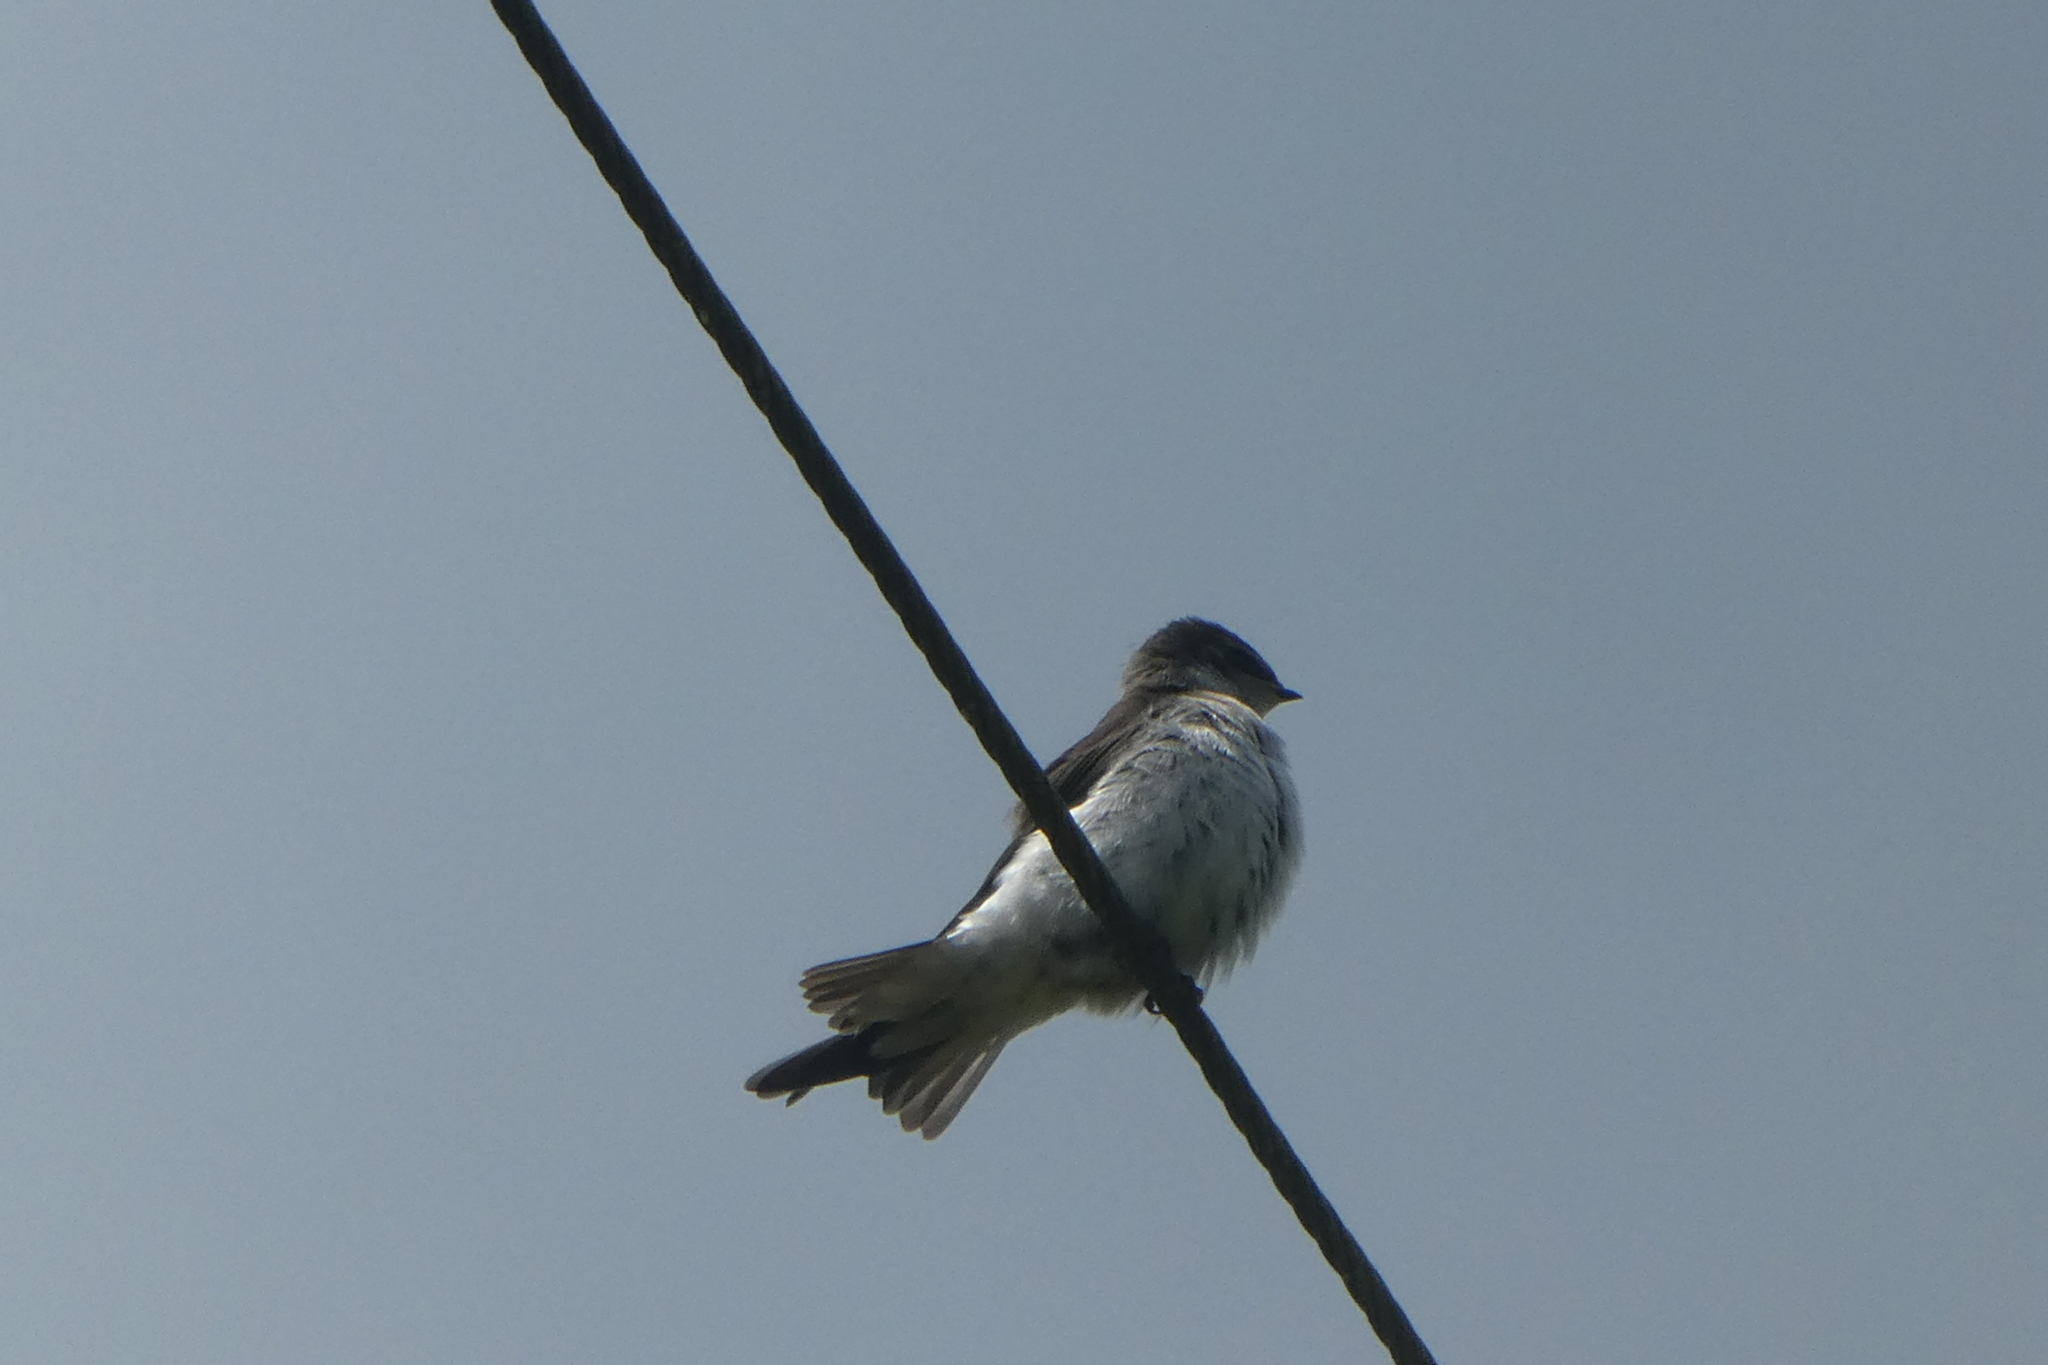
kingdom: Animalia
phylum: Chordata
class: Aves
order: Passeriformes
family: Hirundinidae
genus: Tachycineta
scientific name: Tachycineta thalassina
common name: Violet-green swallow
